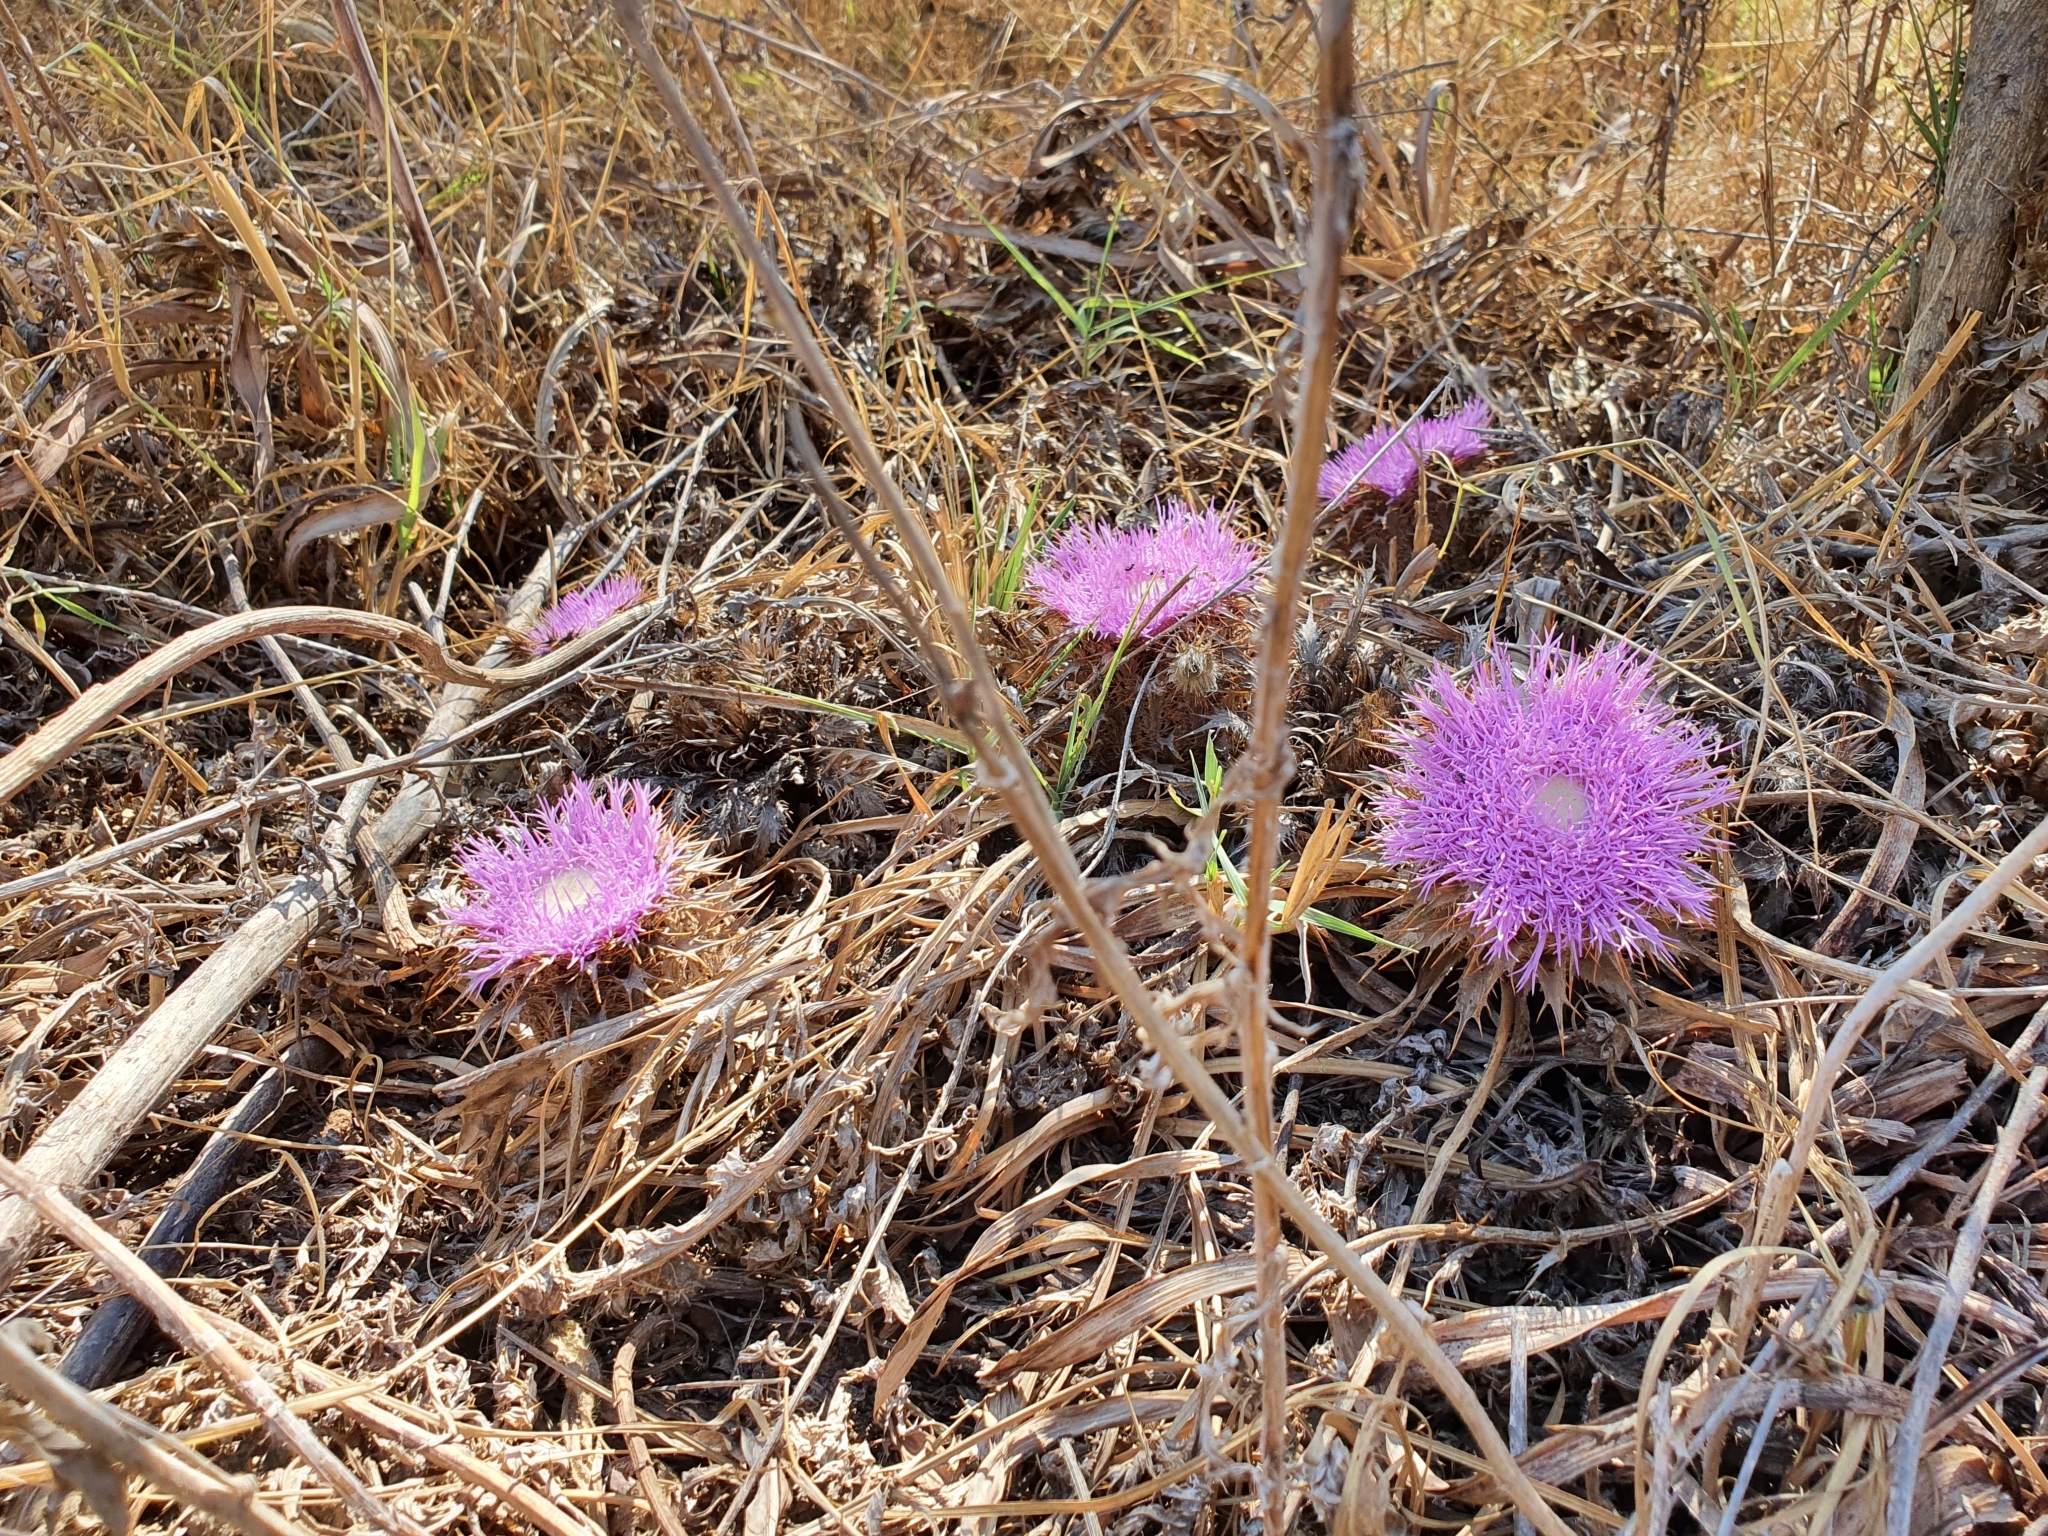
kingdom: Plantae
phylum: Tracheophyta
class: Magnoliopsida
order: Asterales
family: Asteraceae
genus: Chamaeleon
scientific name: Chamaeleon gummifer
